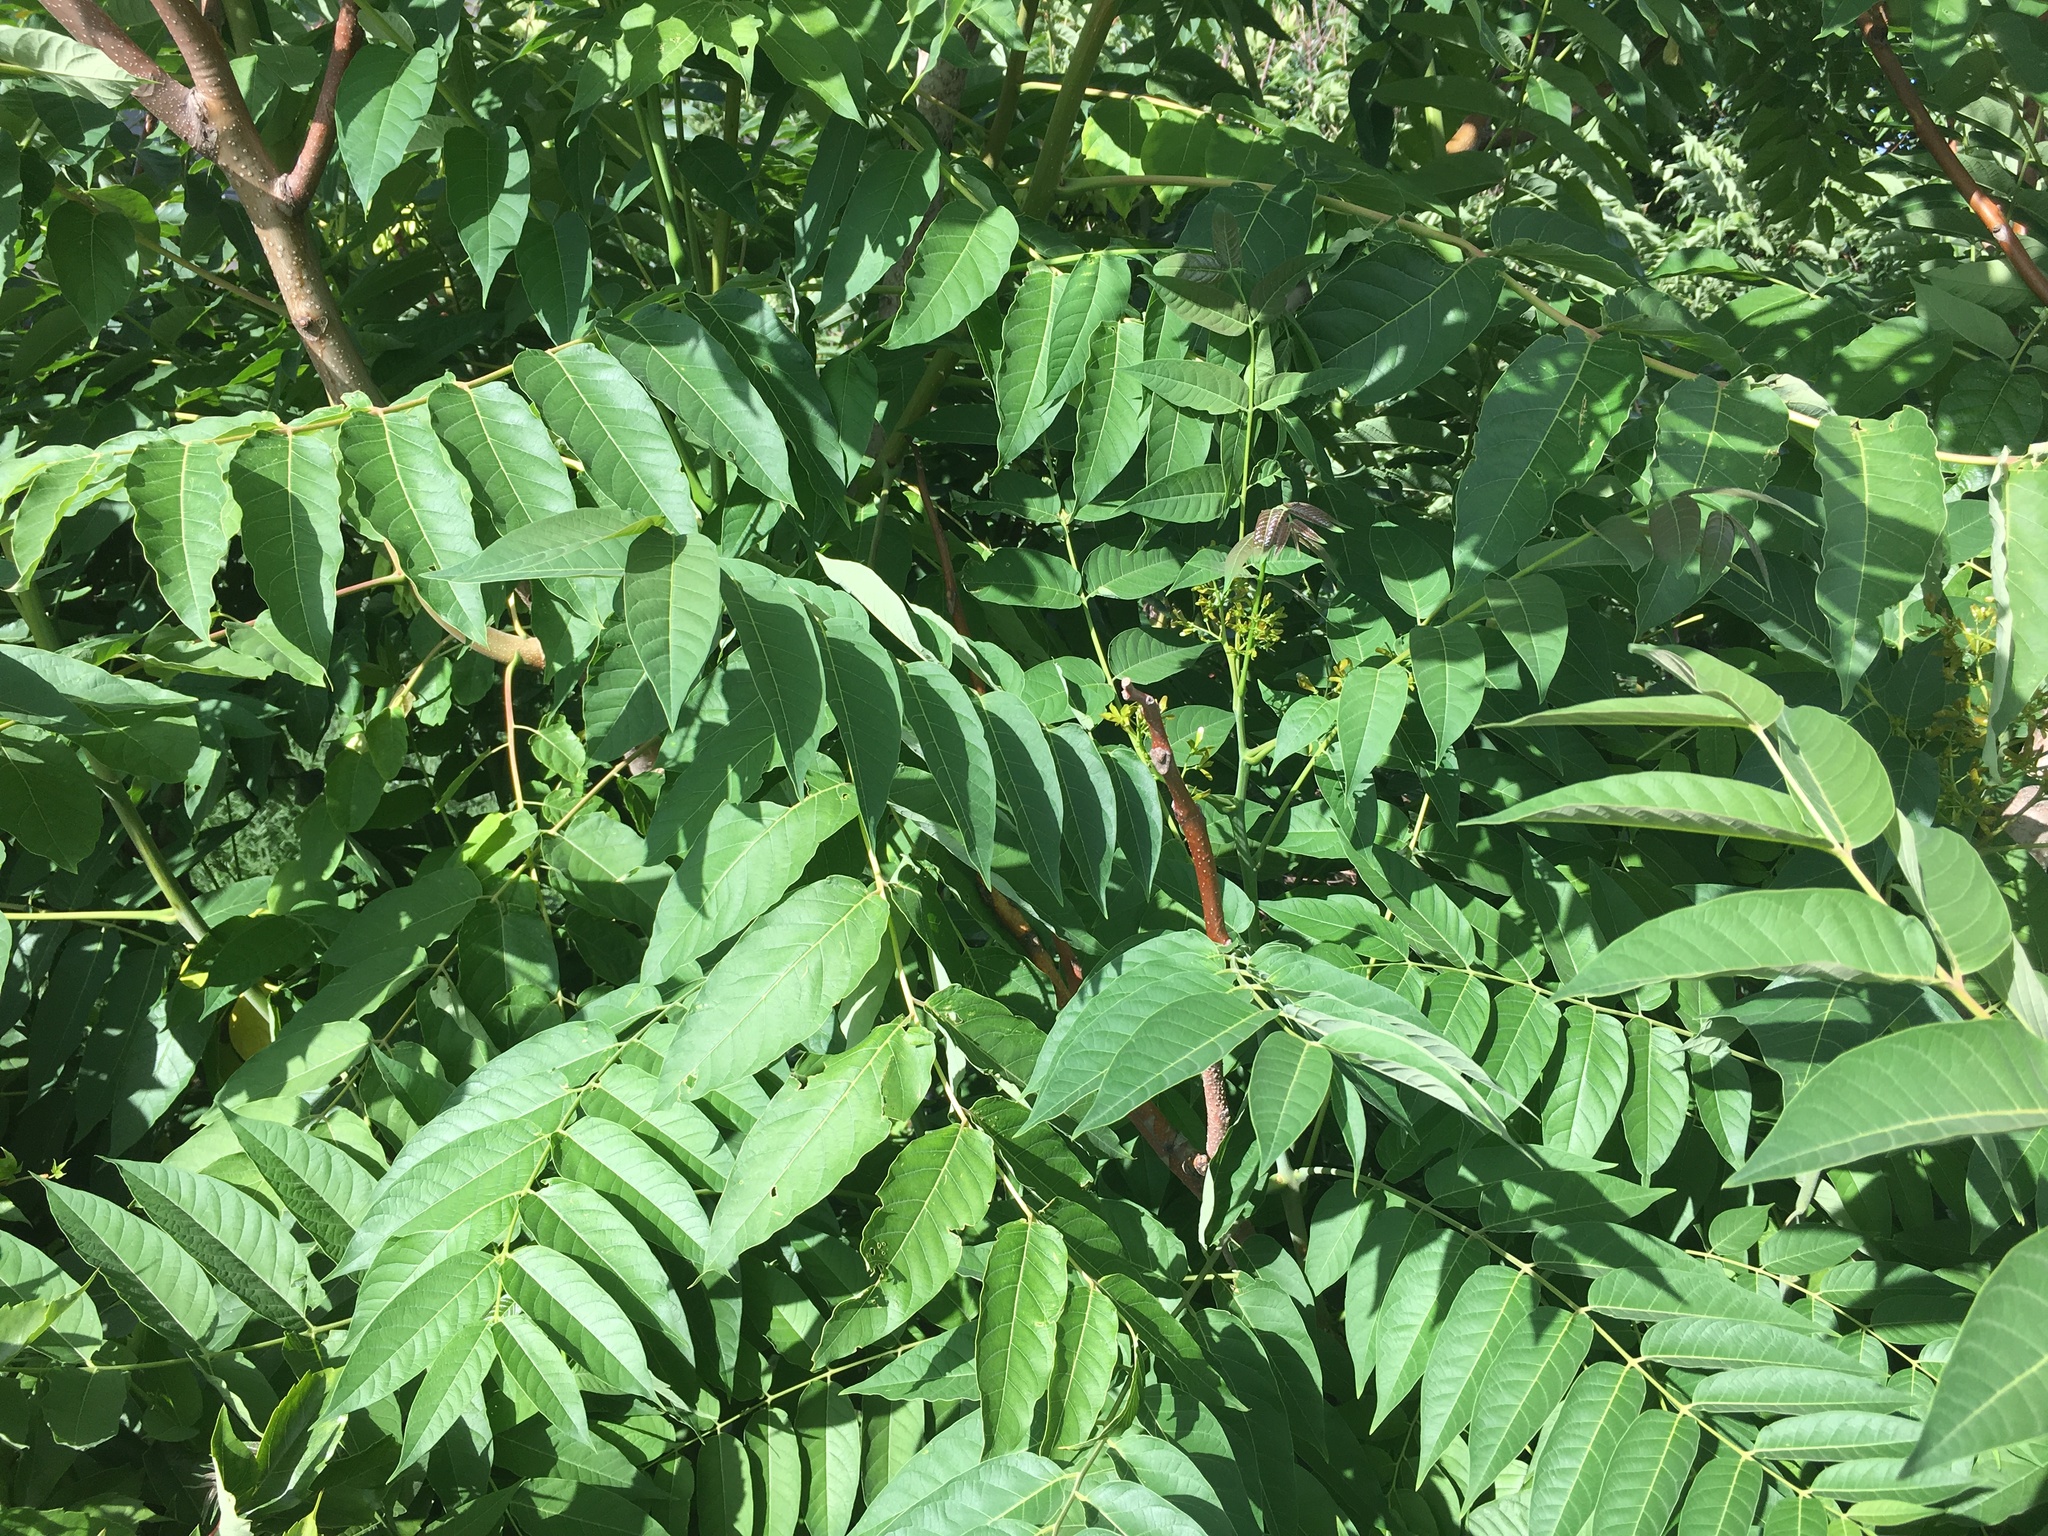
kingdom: Plantae
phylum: Tracheophyta
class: Magnoliopsida
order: Sapindales
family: Simaroubaceae
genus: Ailanthus
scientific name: Ailanthus altissima
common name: Tree-of-heaven
